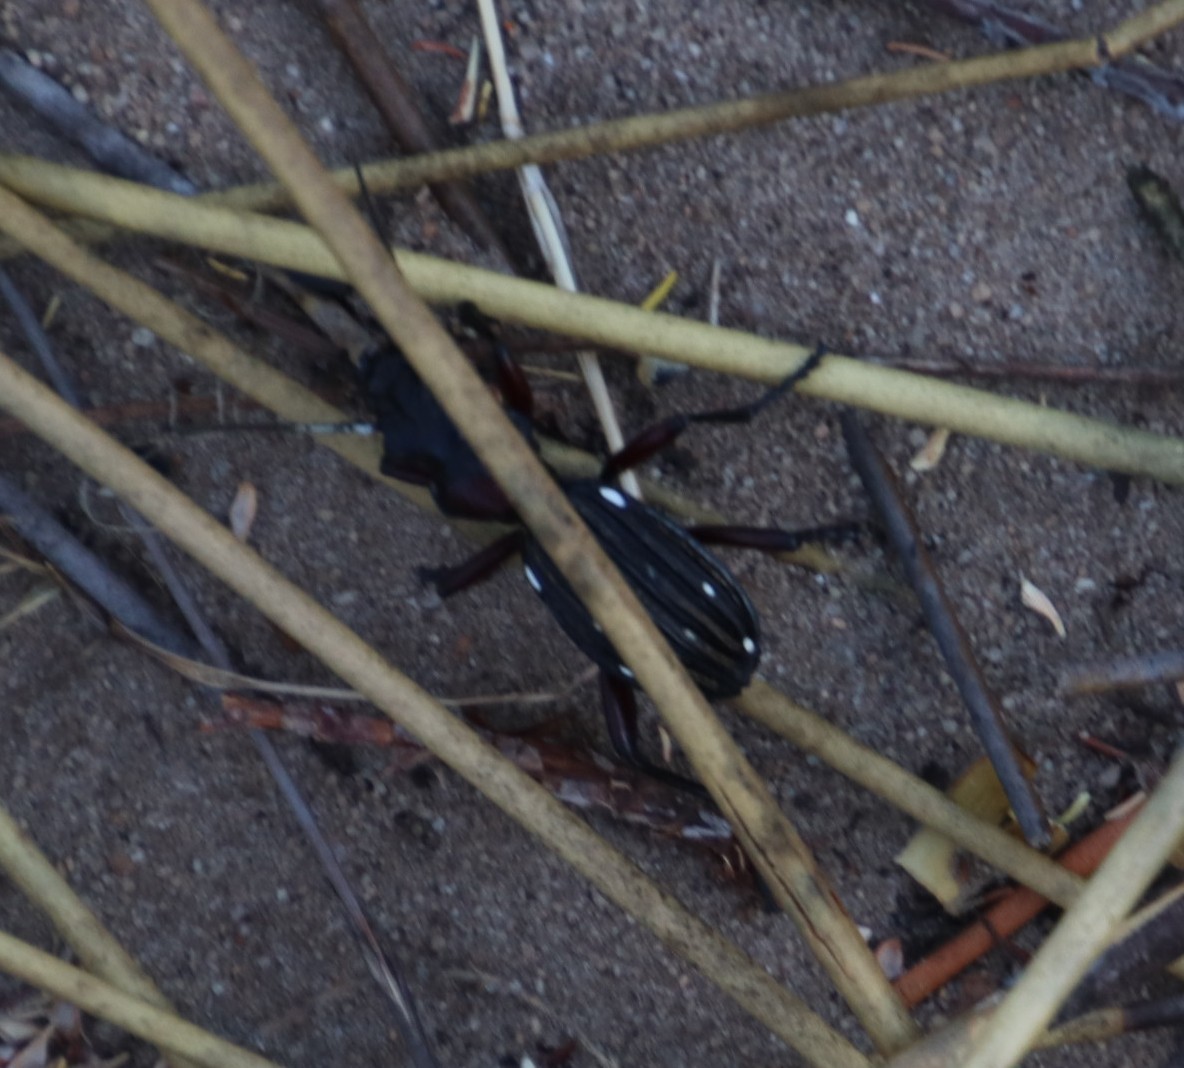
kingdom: Animalia
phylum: Arthropoda
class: Insecta
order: Coleoptera
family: Carabidae
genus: Anthia
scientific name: Anthia decemguttata
